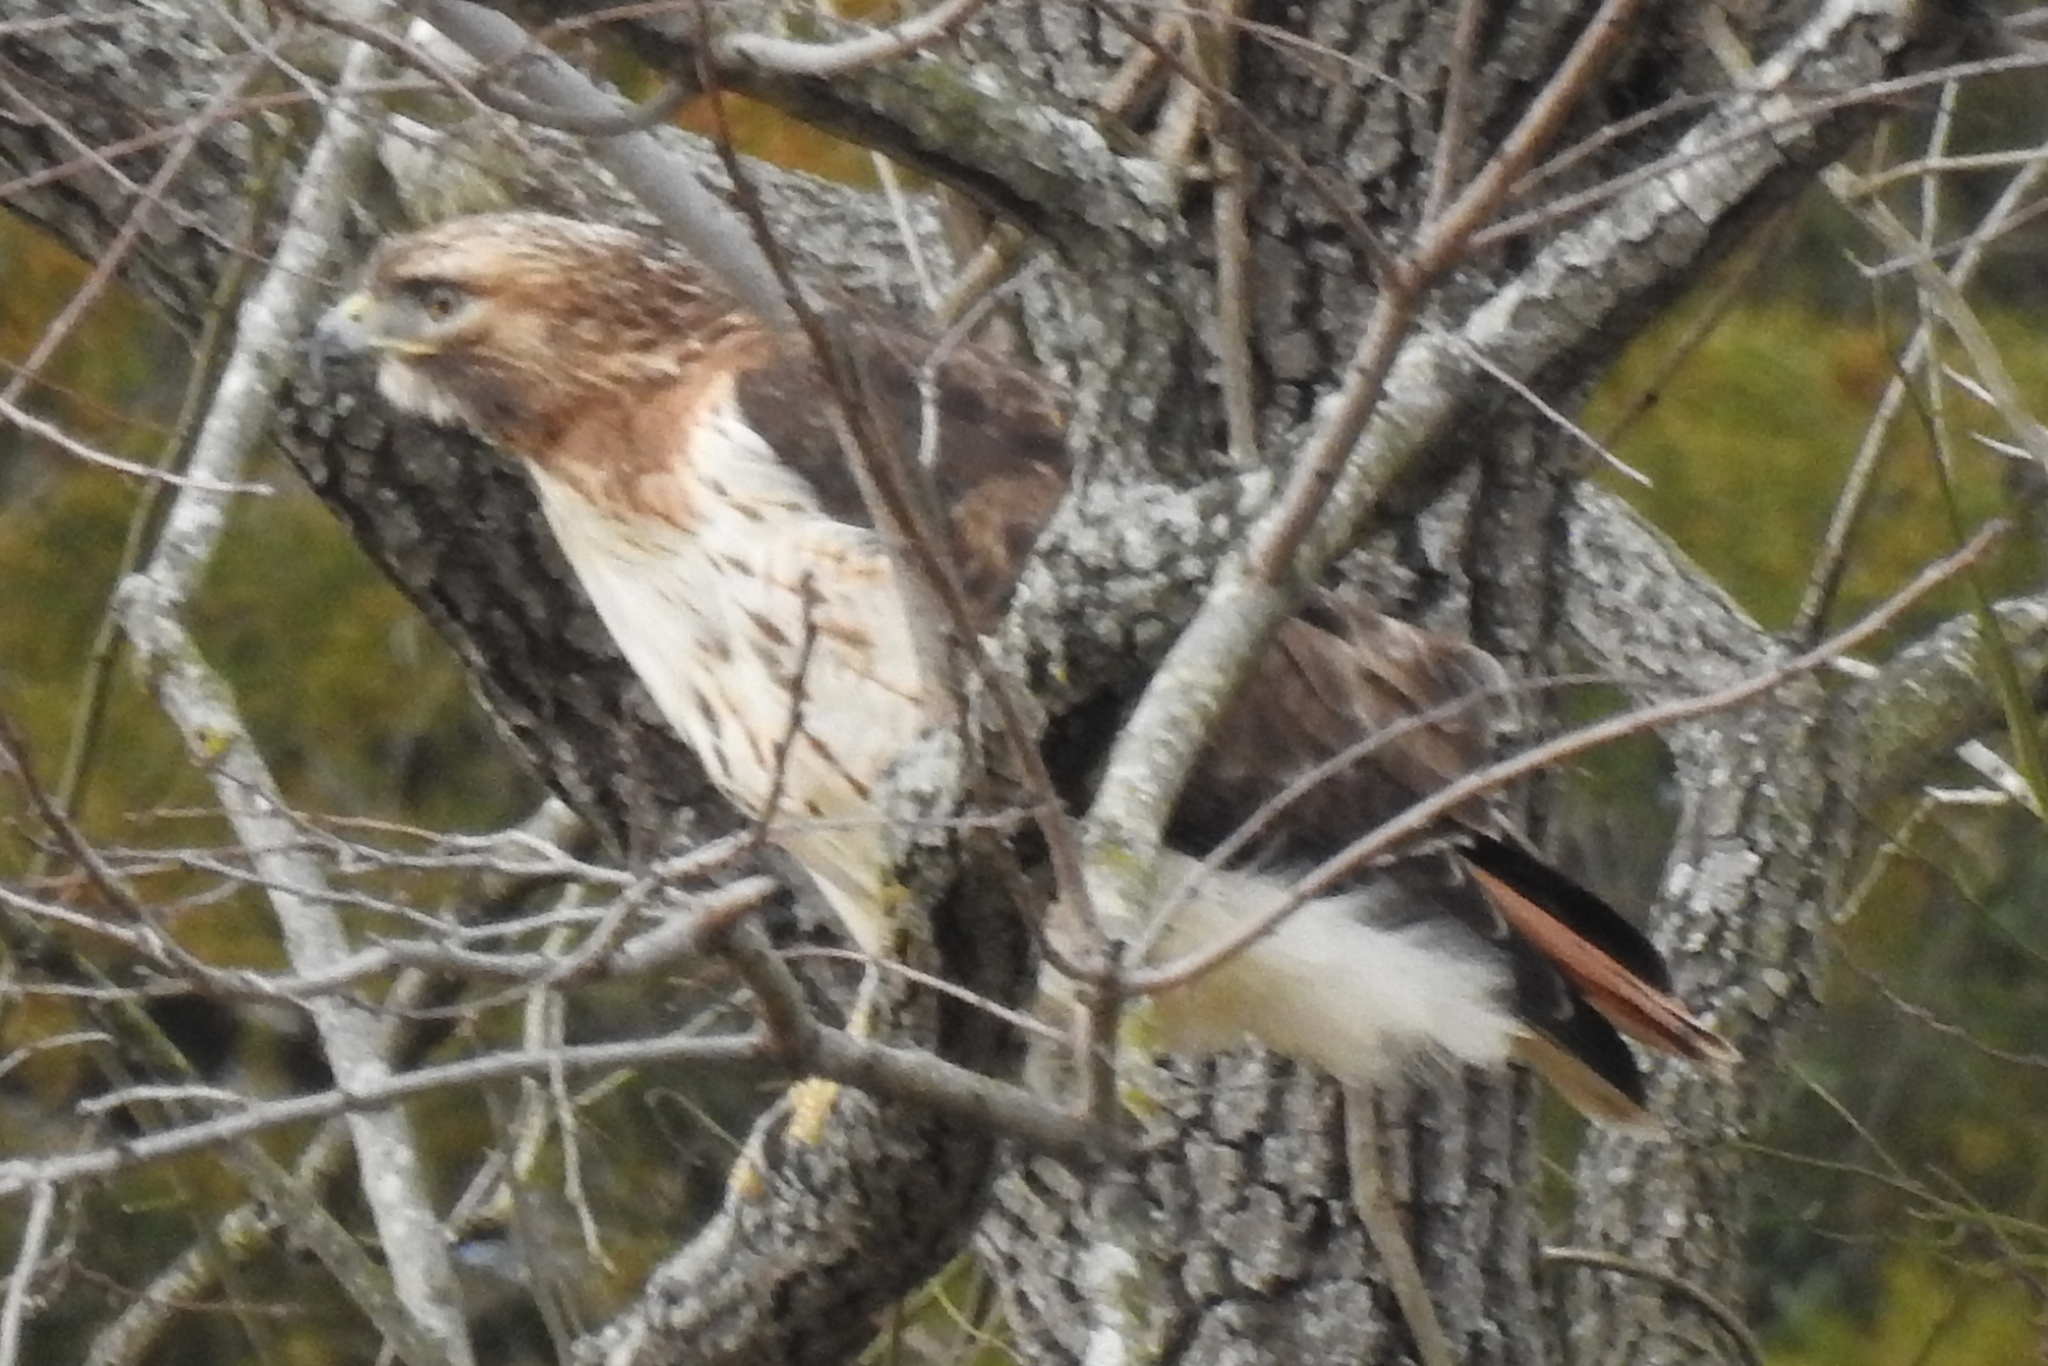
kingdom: Animalia
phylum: Chordata
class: Aves
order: Accipitriformes
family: Accipitridae
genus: Buteo
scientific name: Buteo jamaicensis
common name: Red-tailed hawk
